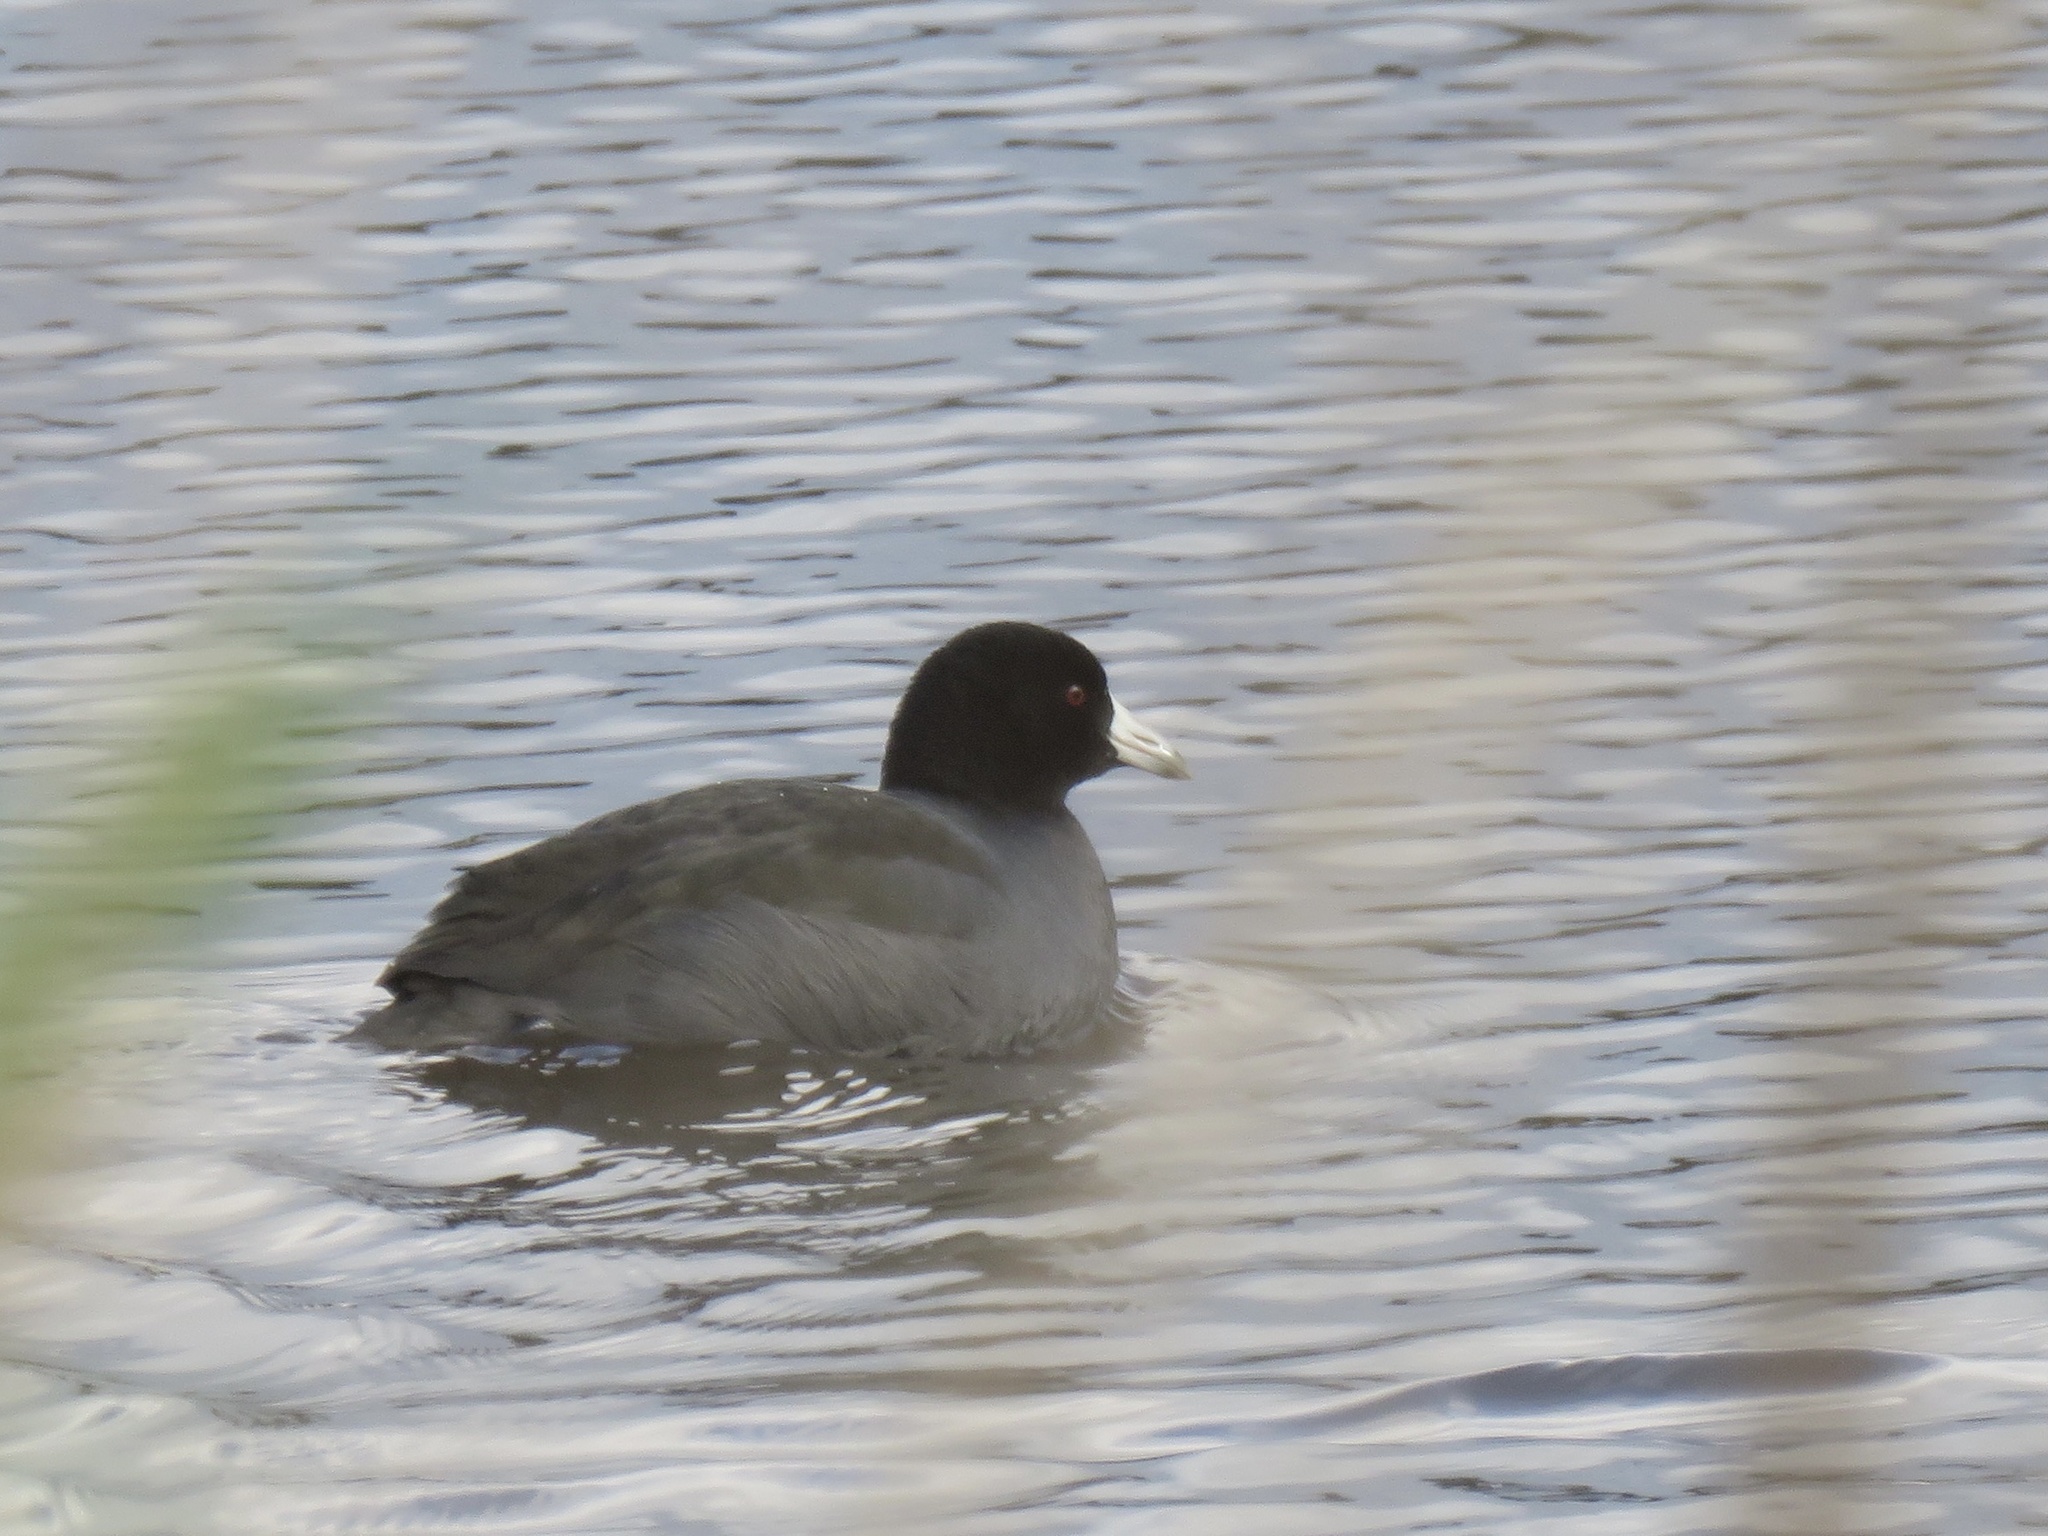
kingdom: Animalia
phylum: Chordata
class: Aves
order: Gruiformes
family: Rallidae
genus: Fulica
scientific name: Fulica americana
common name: American coot
